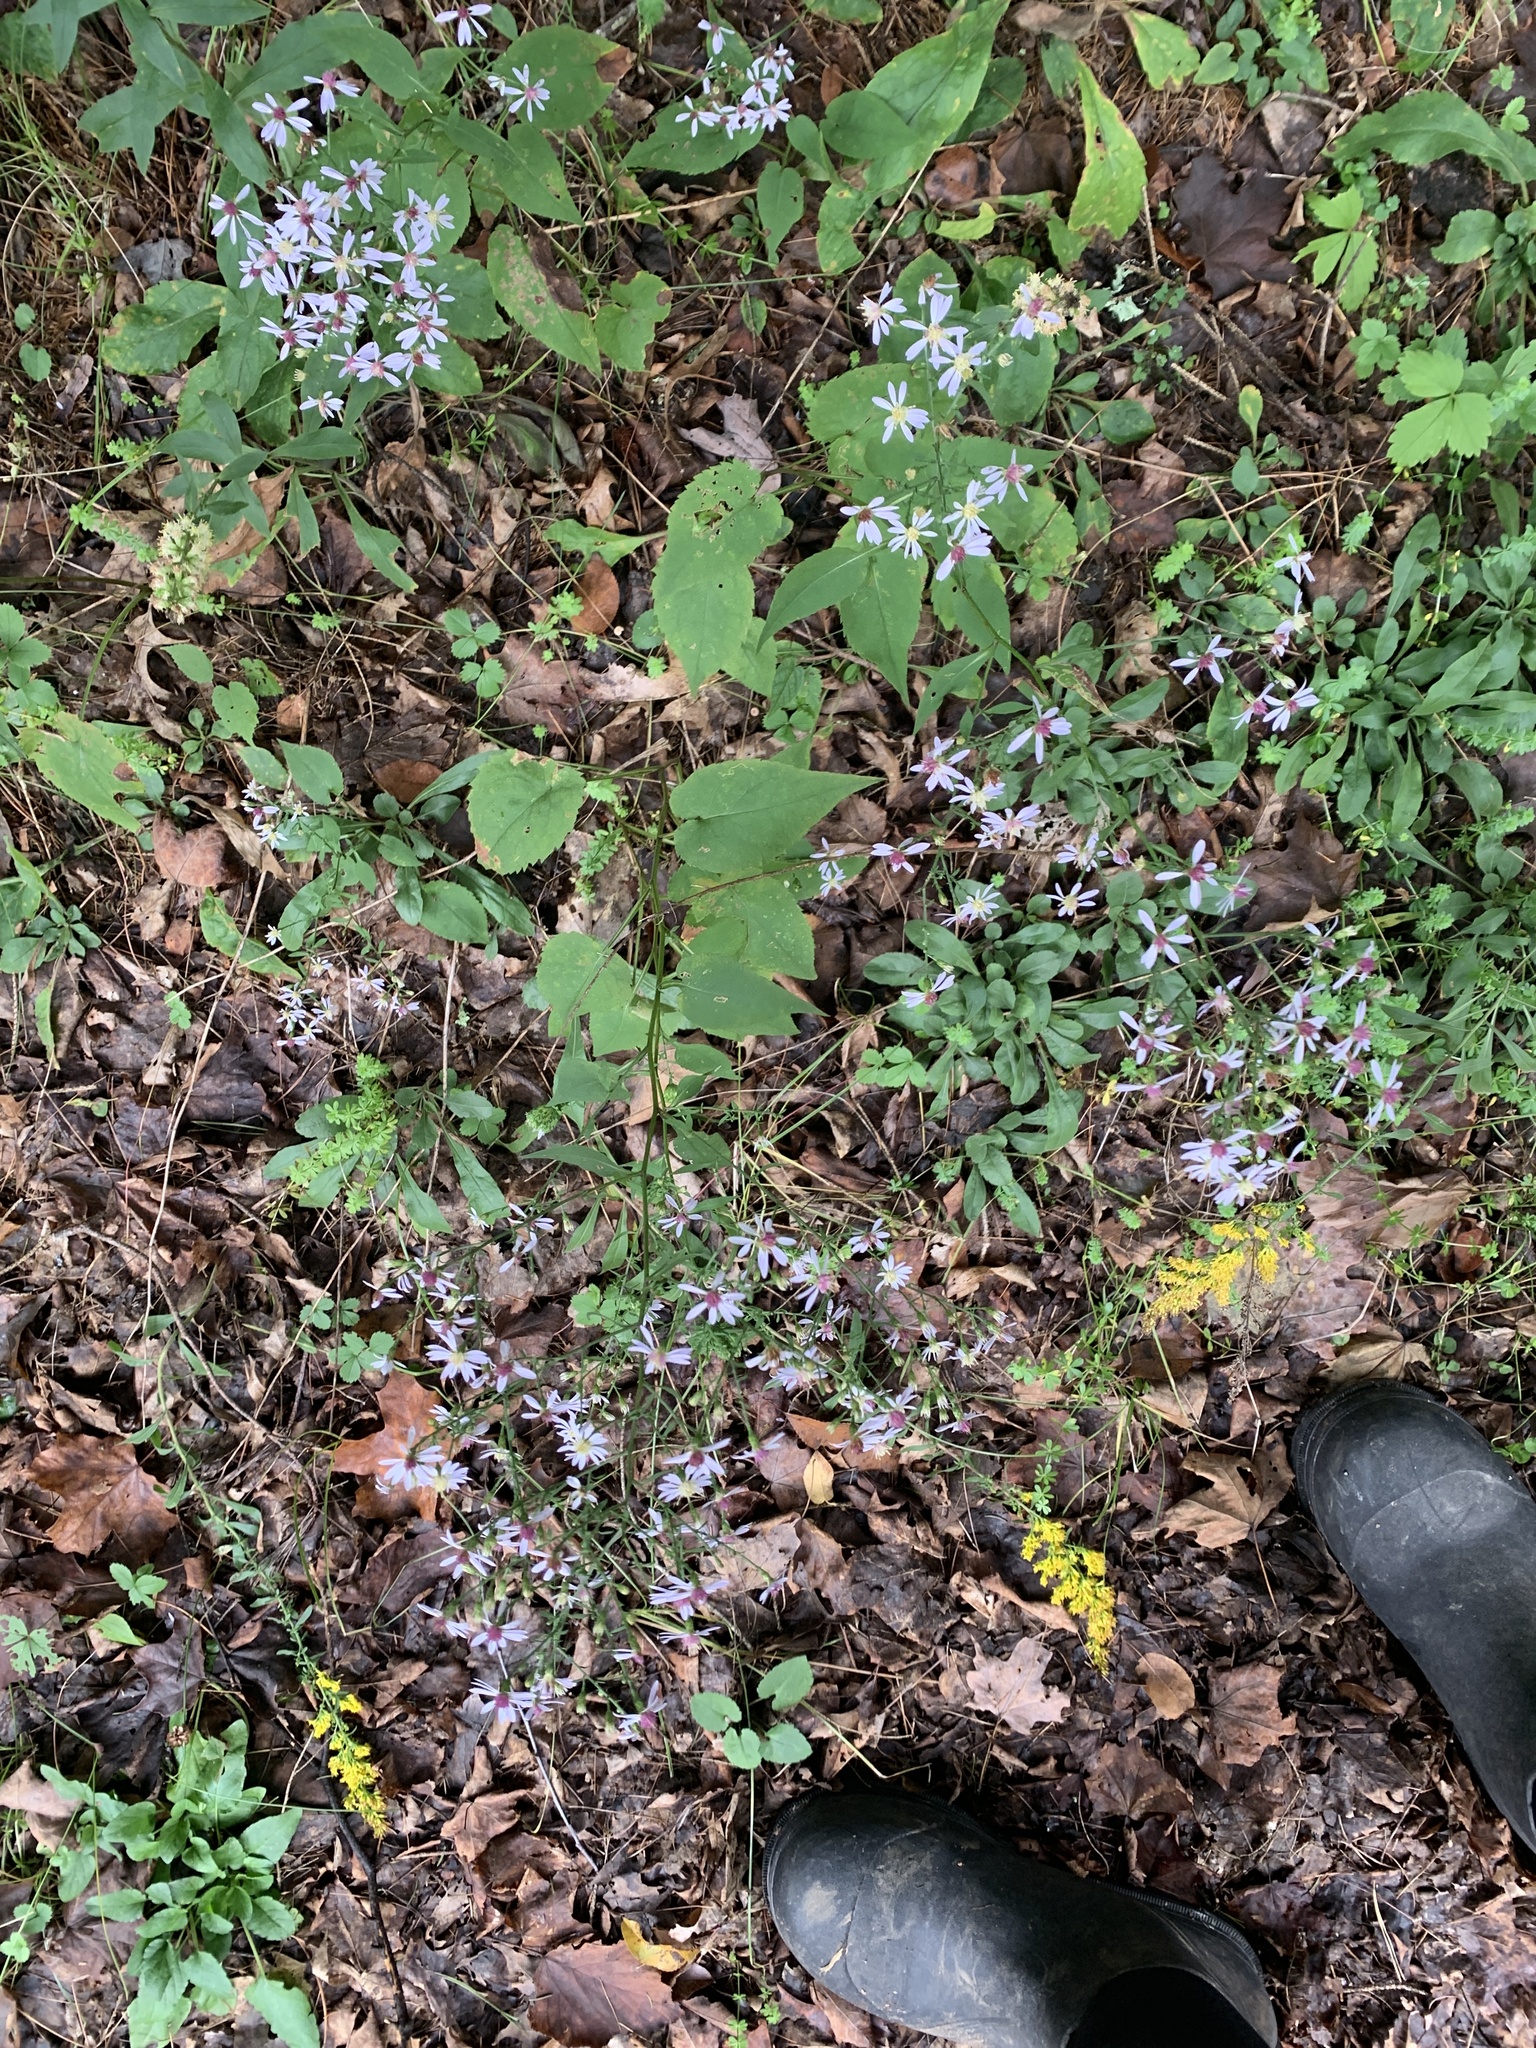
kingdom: Plantae
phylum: Tracheophyta
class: Magnoliopsida
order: Asterales
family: Asteraceae
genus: Symphyotrichum
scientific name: Symphyotrichum cordifolium
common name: Beeweed
